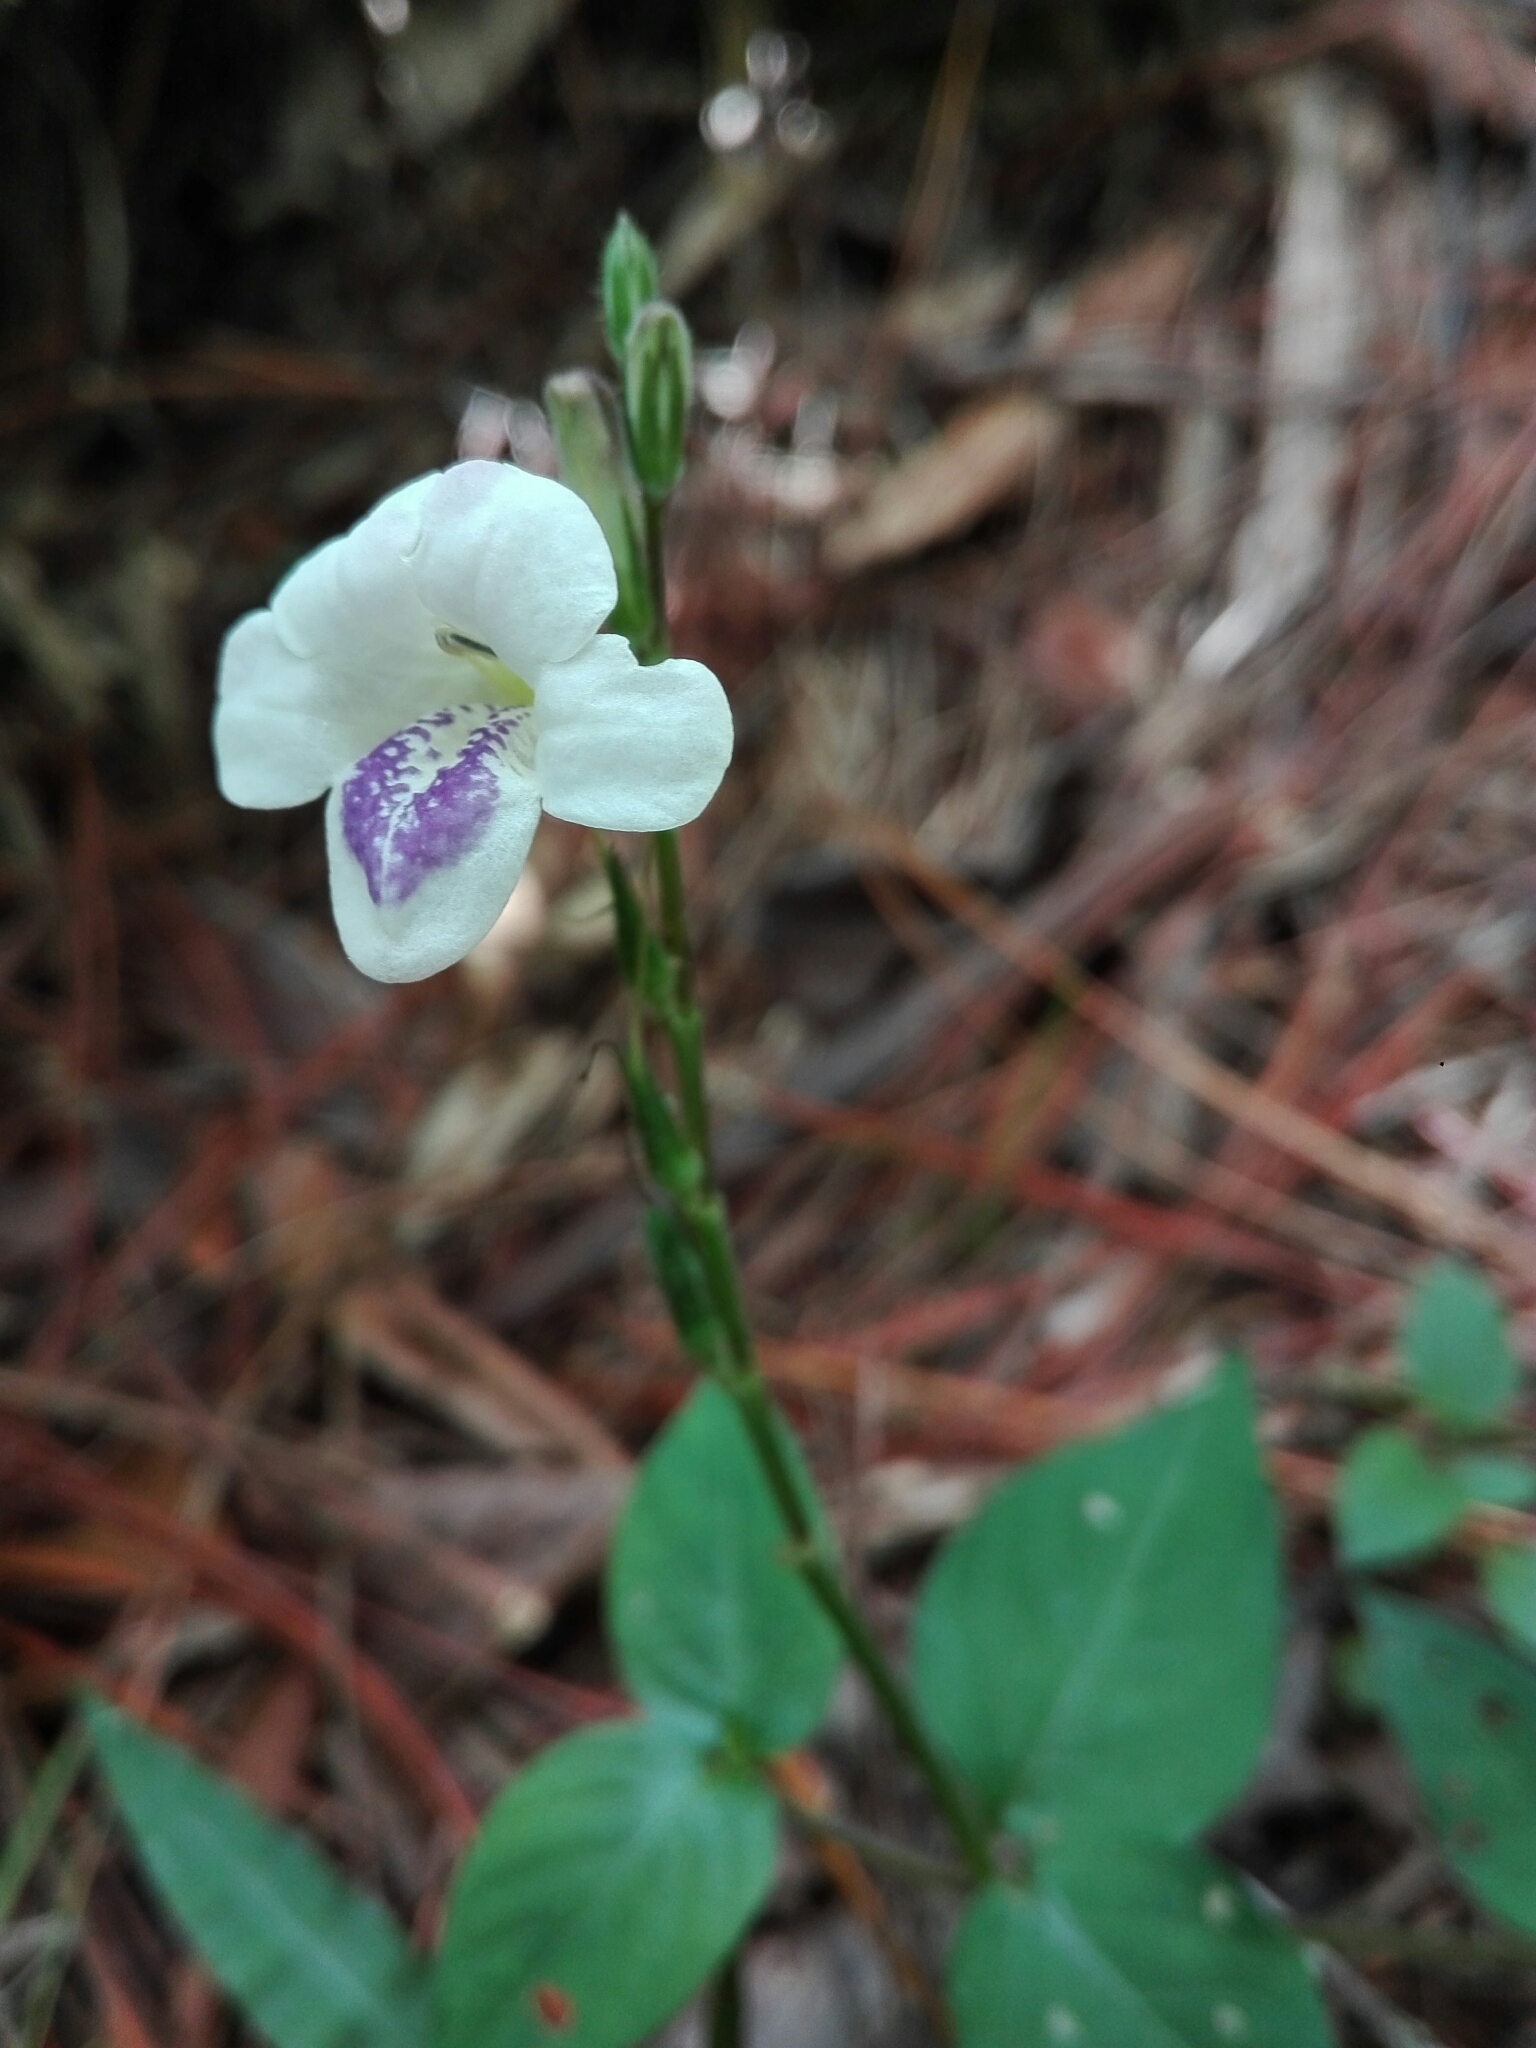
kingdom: Plantae
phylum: Tracheophyta
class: Magnoliopsida
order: Lamiales
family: Acanthaceae
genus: Asystasia
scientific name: Asystasia intrusa
